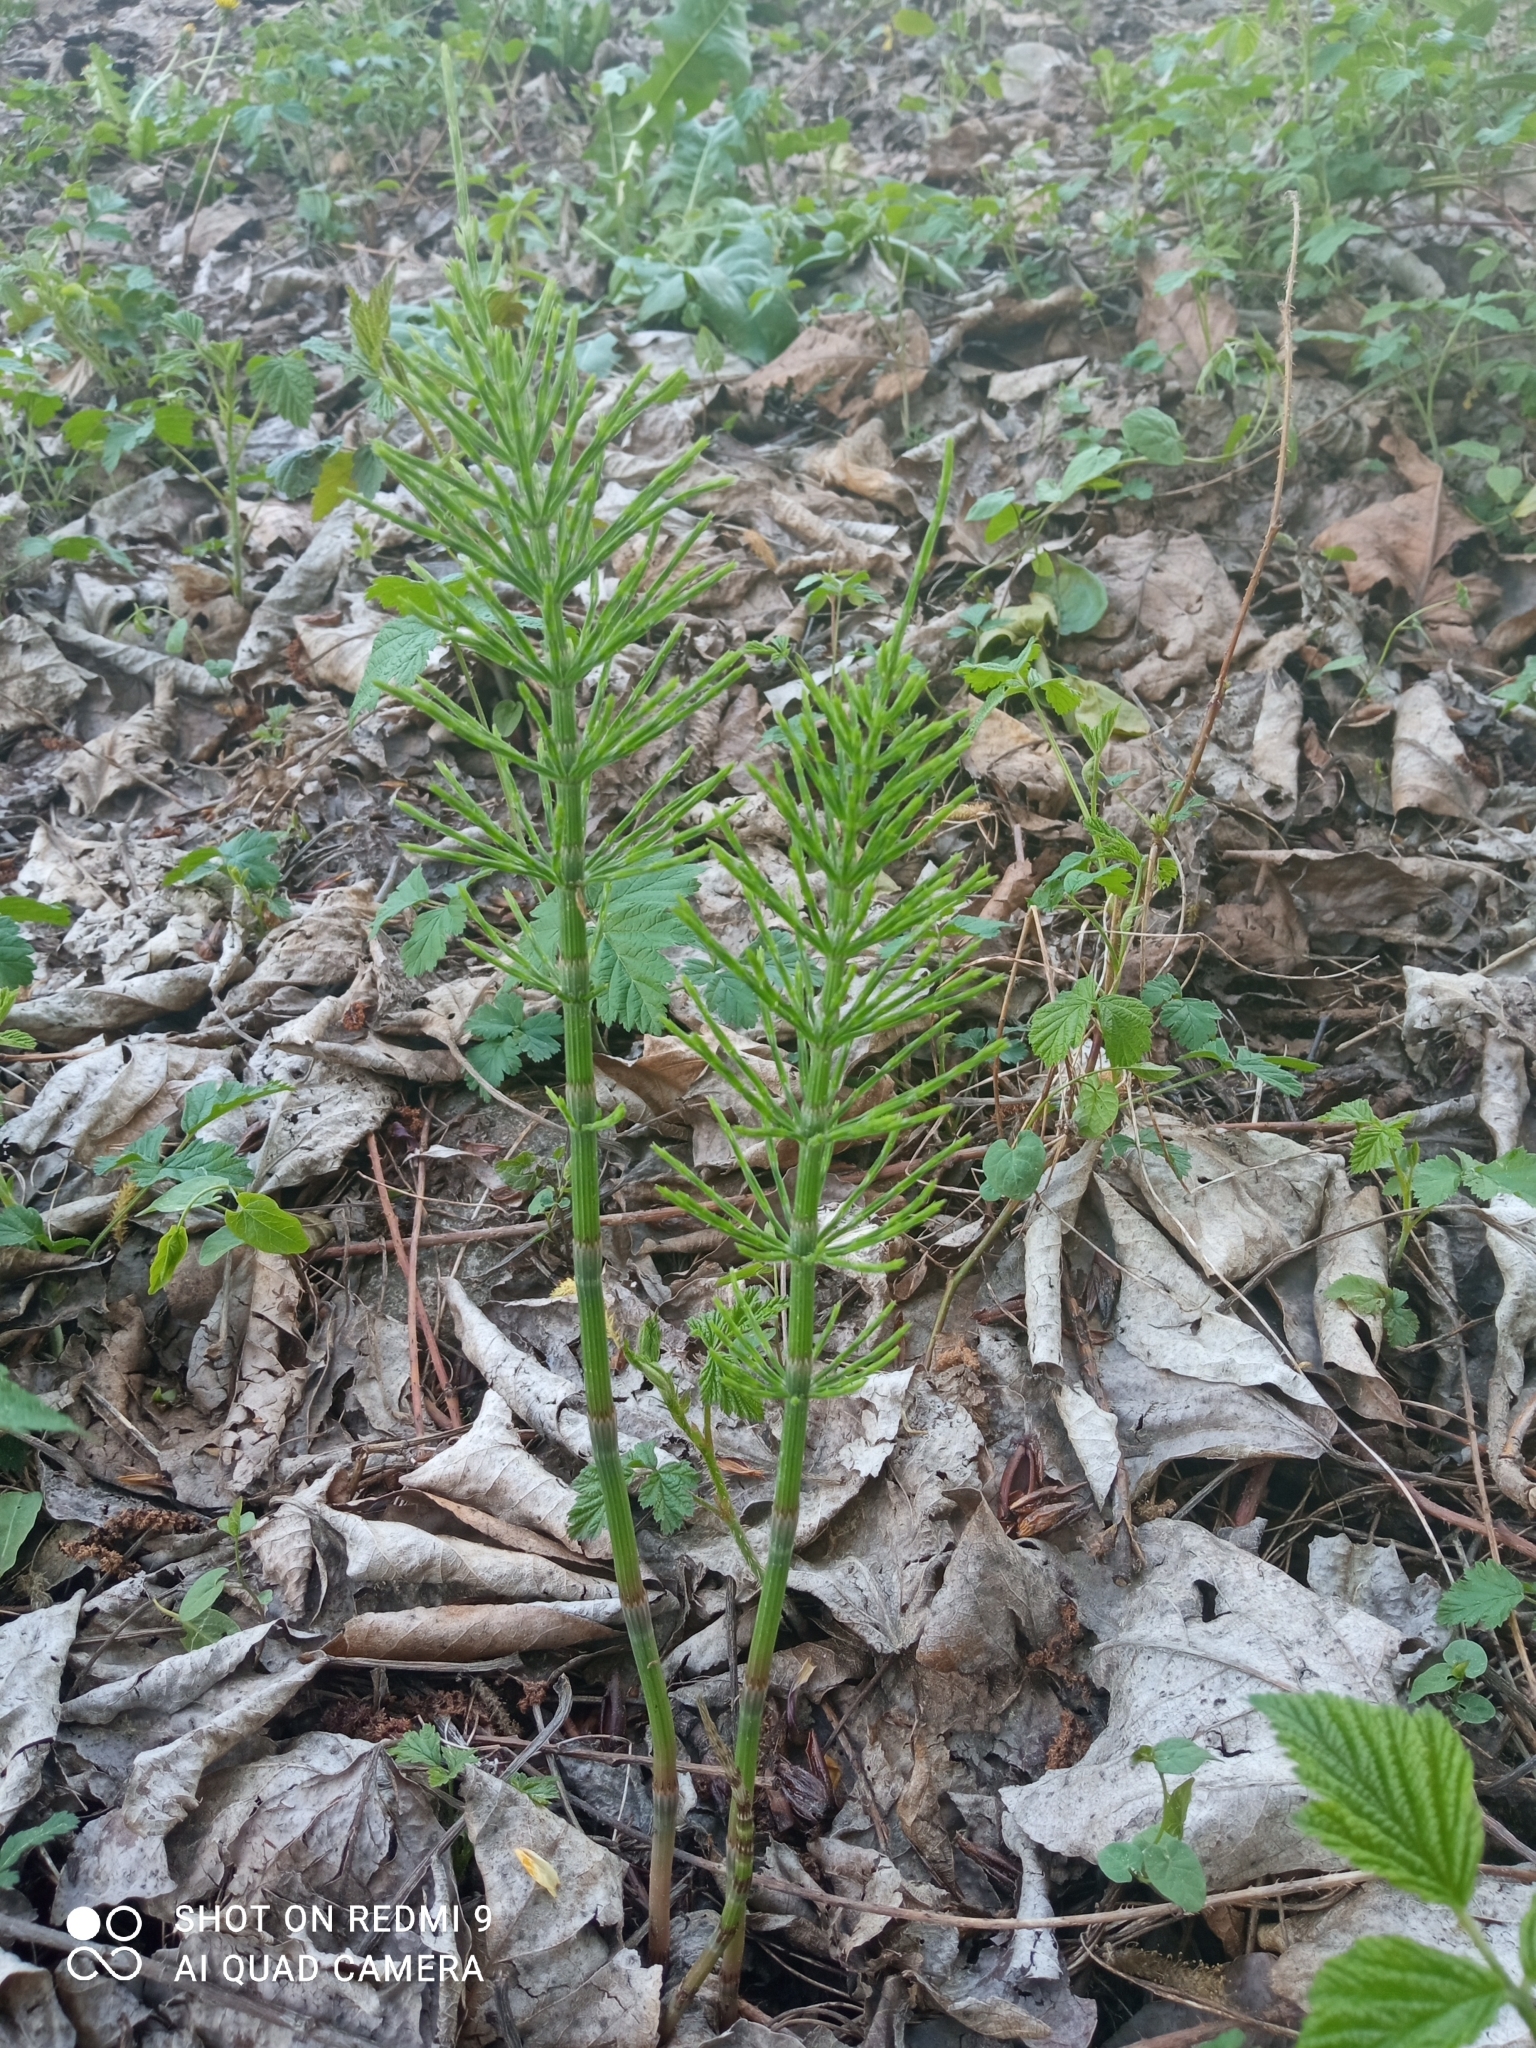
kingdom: Plantae
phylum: Tracheophyta
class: Polypodiopsida
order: Equisetales
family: Equisetaceae
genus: Equisetum
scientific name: Equisetum arvense
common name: Field horsetail
